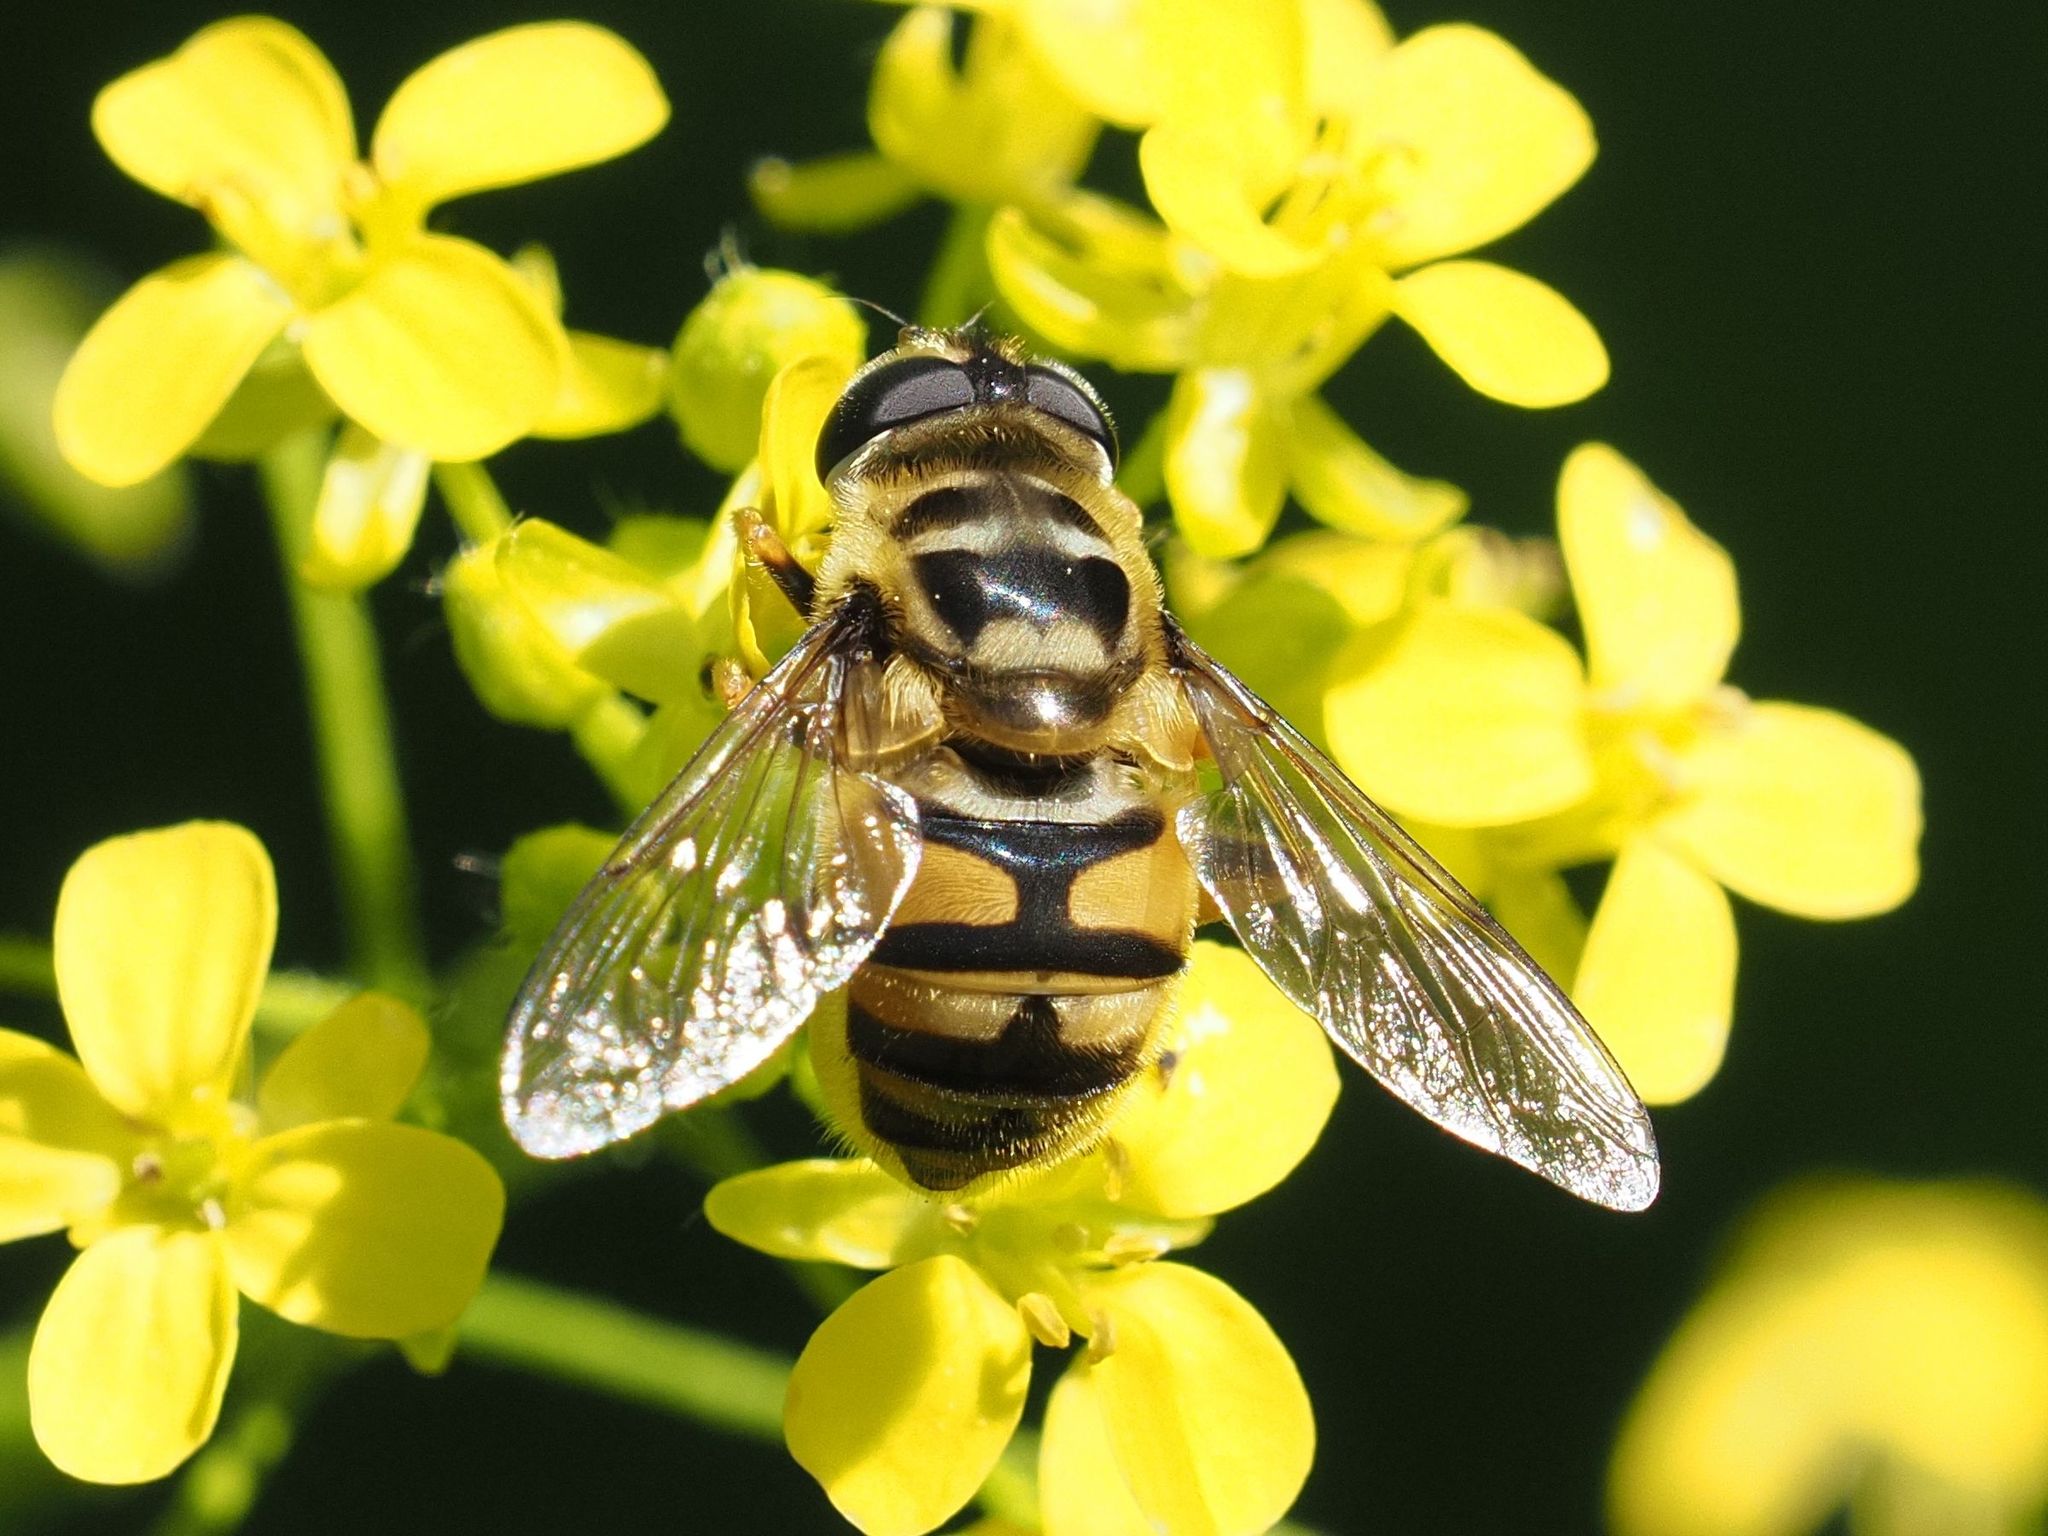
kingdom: Animalia
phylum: Arthropoda
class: Insecta
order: Diptera
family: Syrphidae
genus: Myathropa
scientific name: Myathropa florea
